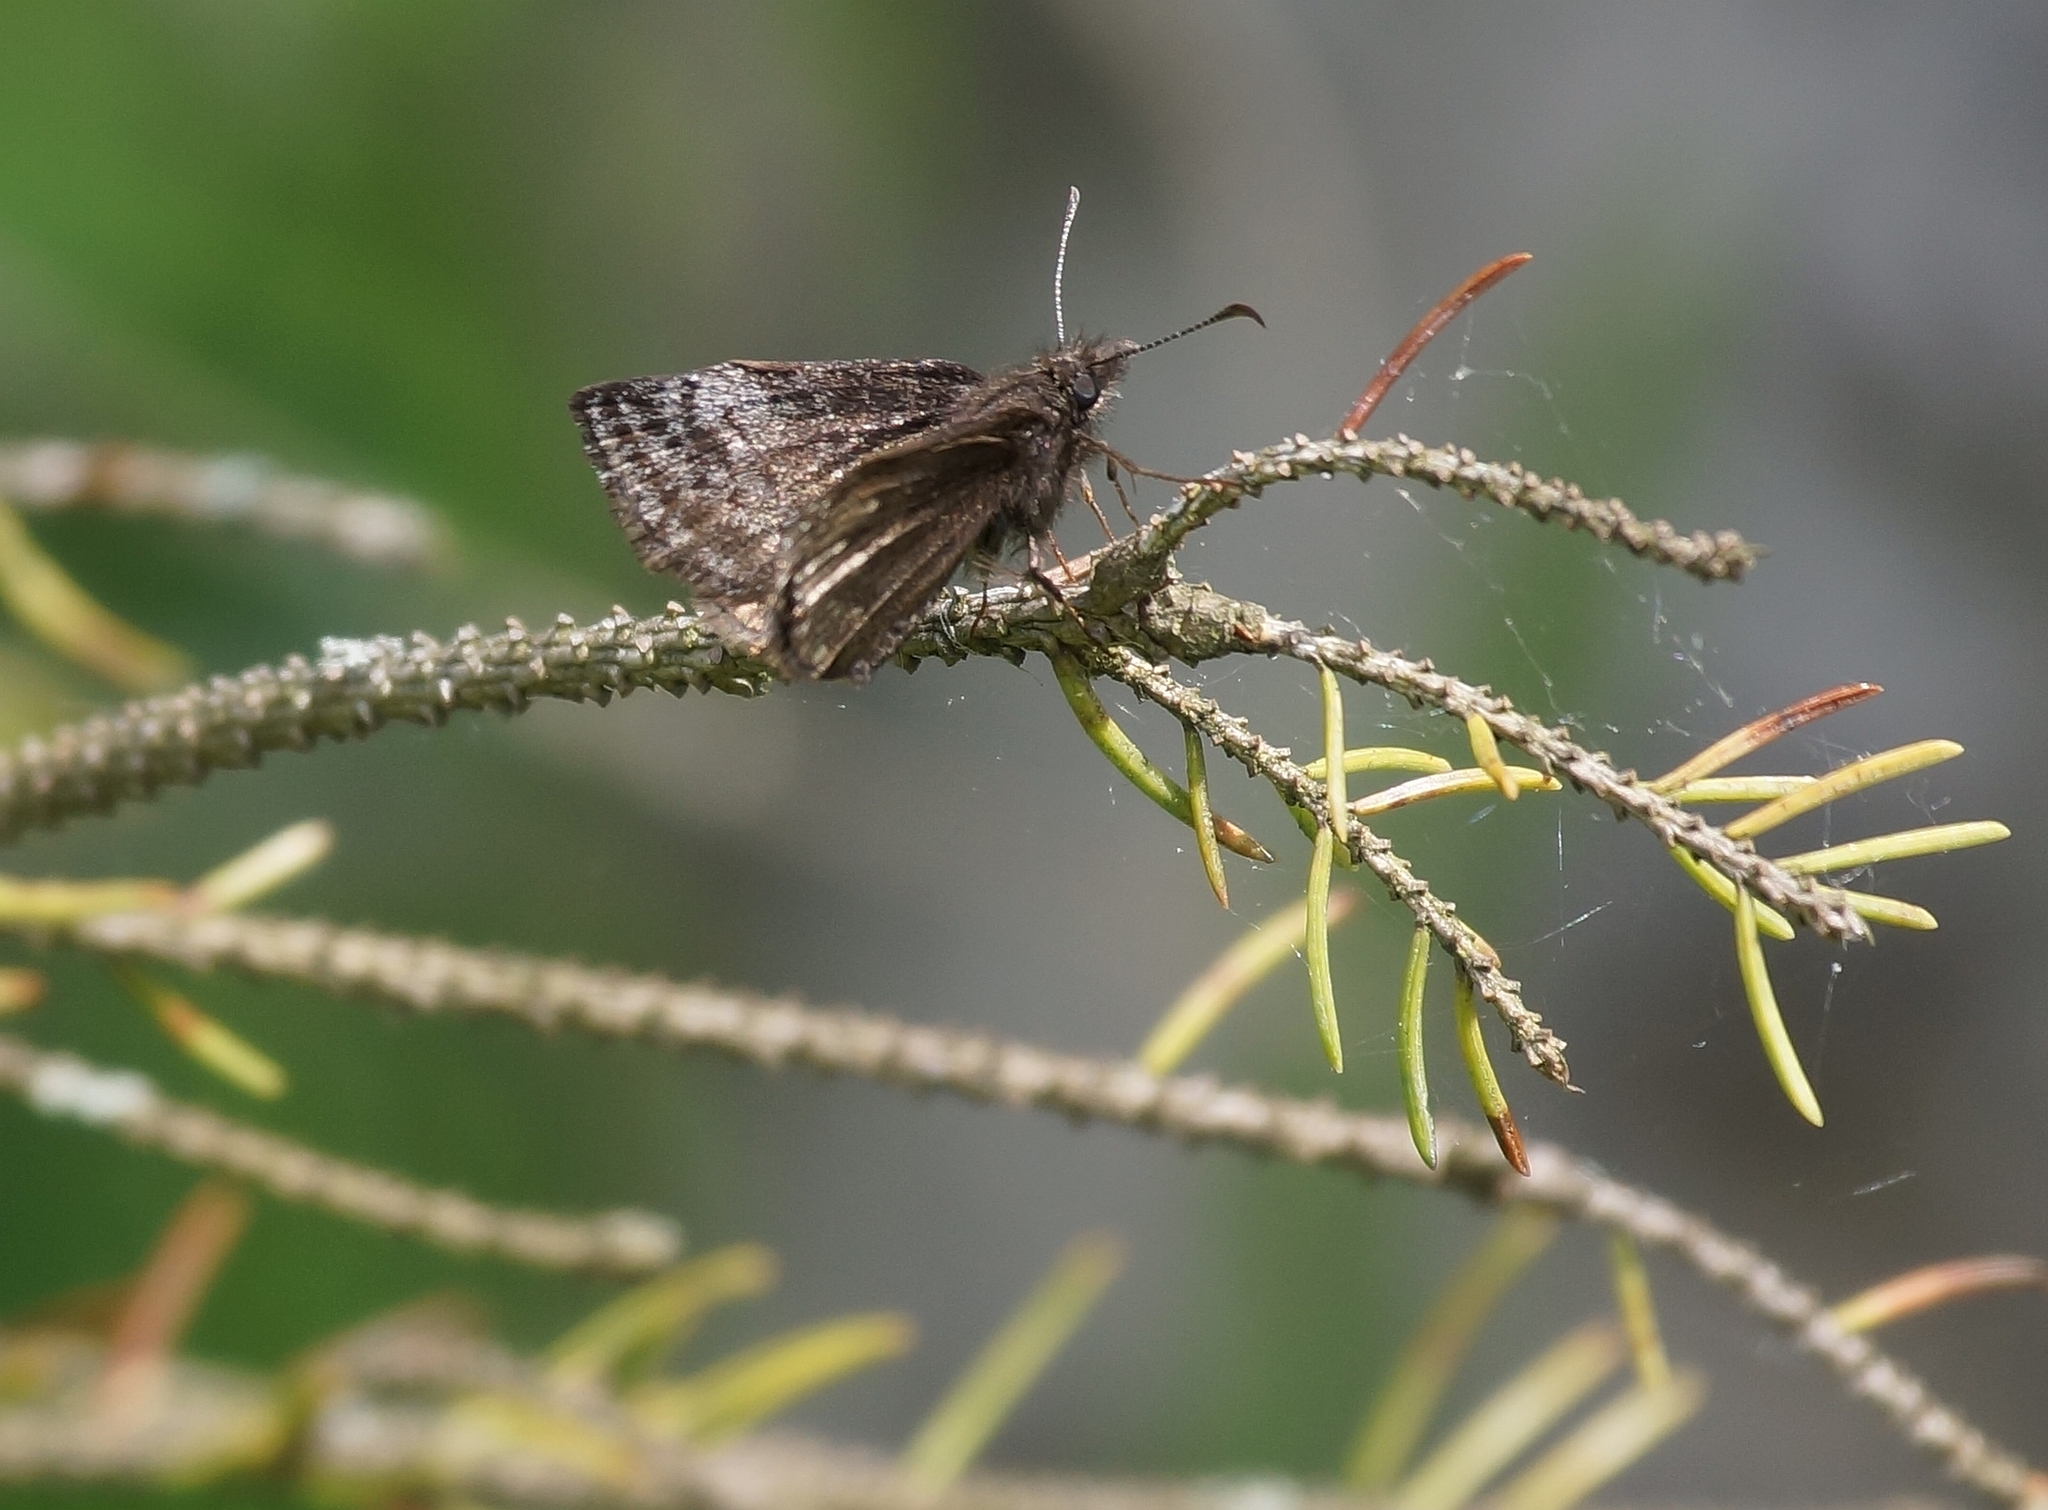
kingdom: Animalia
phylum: Arthropoda
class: Insecta
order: Lepidoptera
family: Hesperiidae
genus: Erynnis
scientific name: Erynnis icelus
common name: Dreamy duskywing
